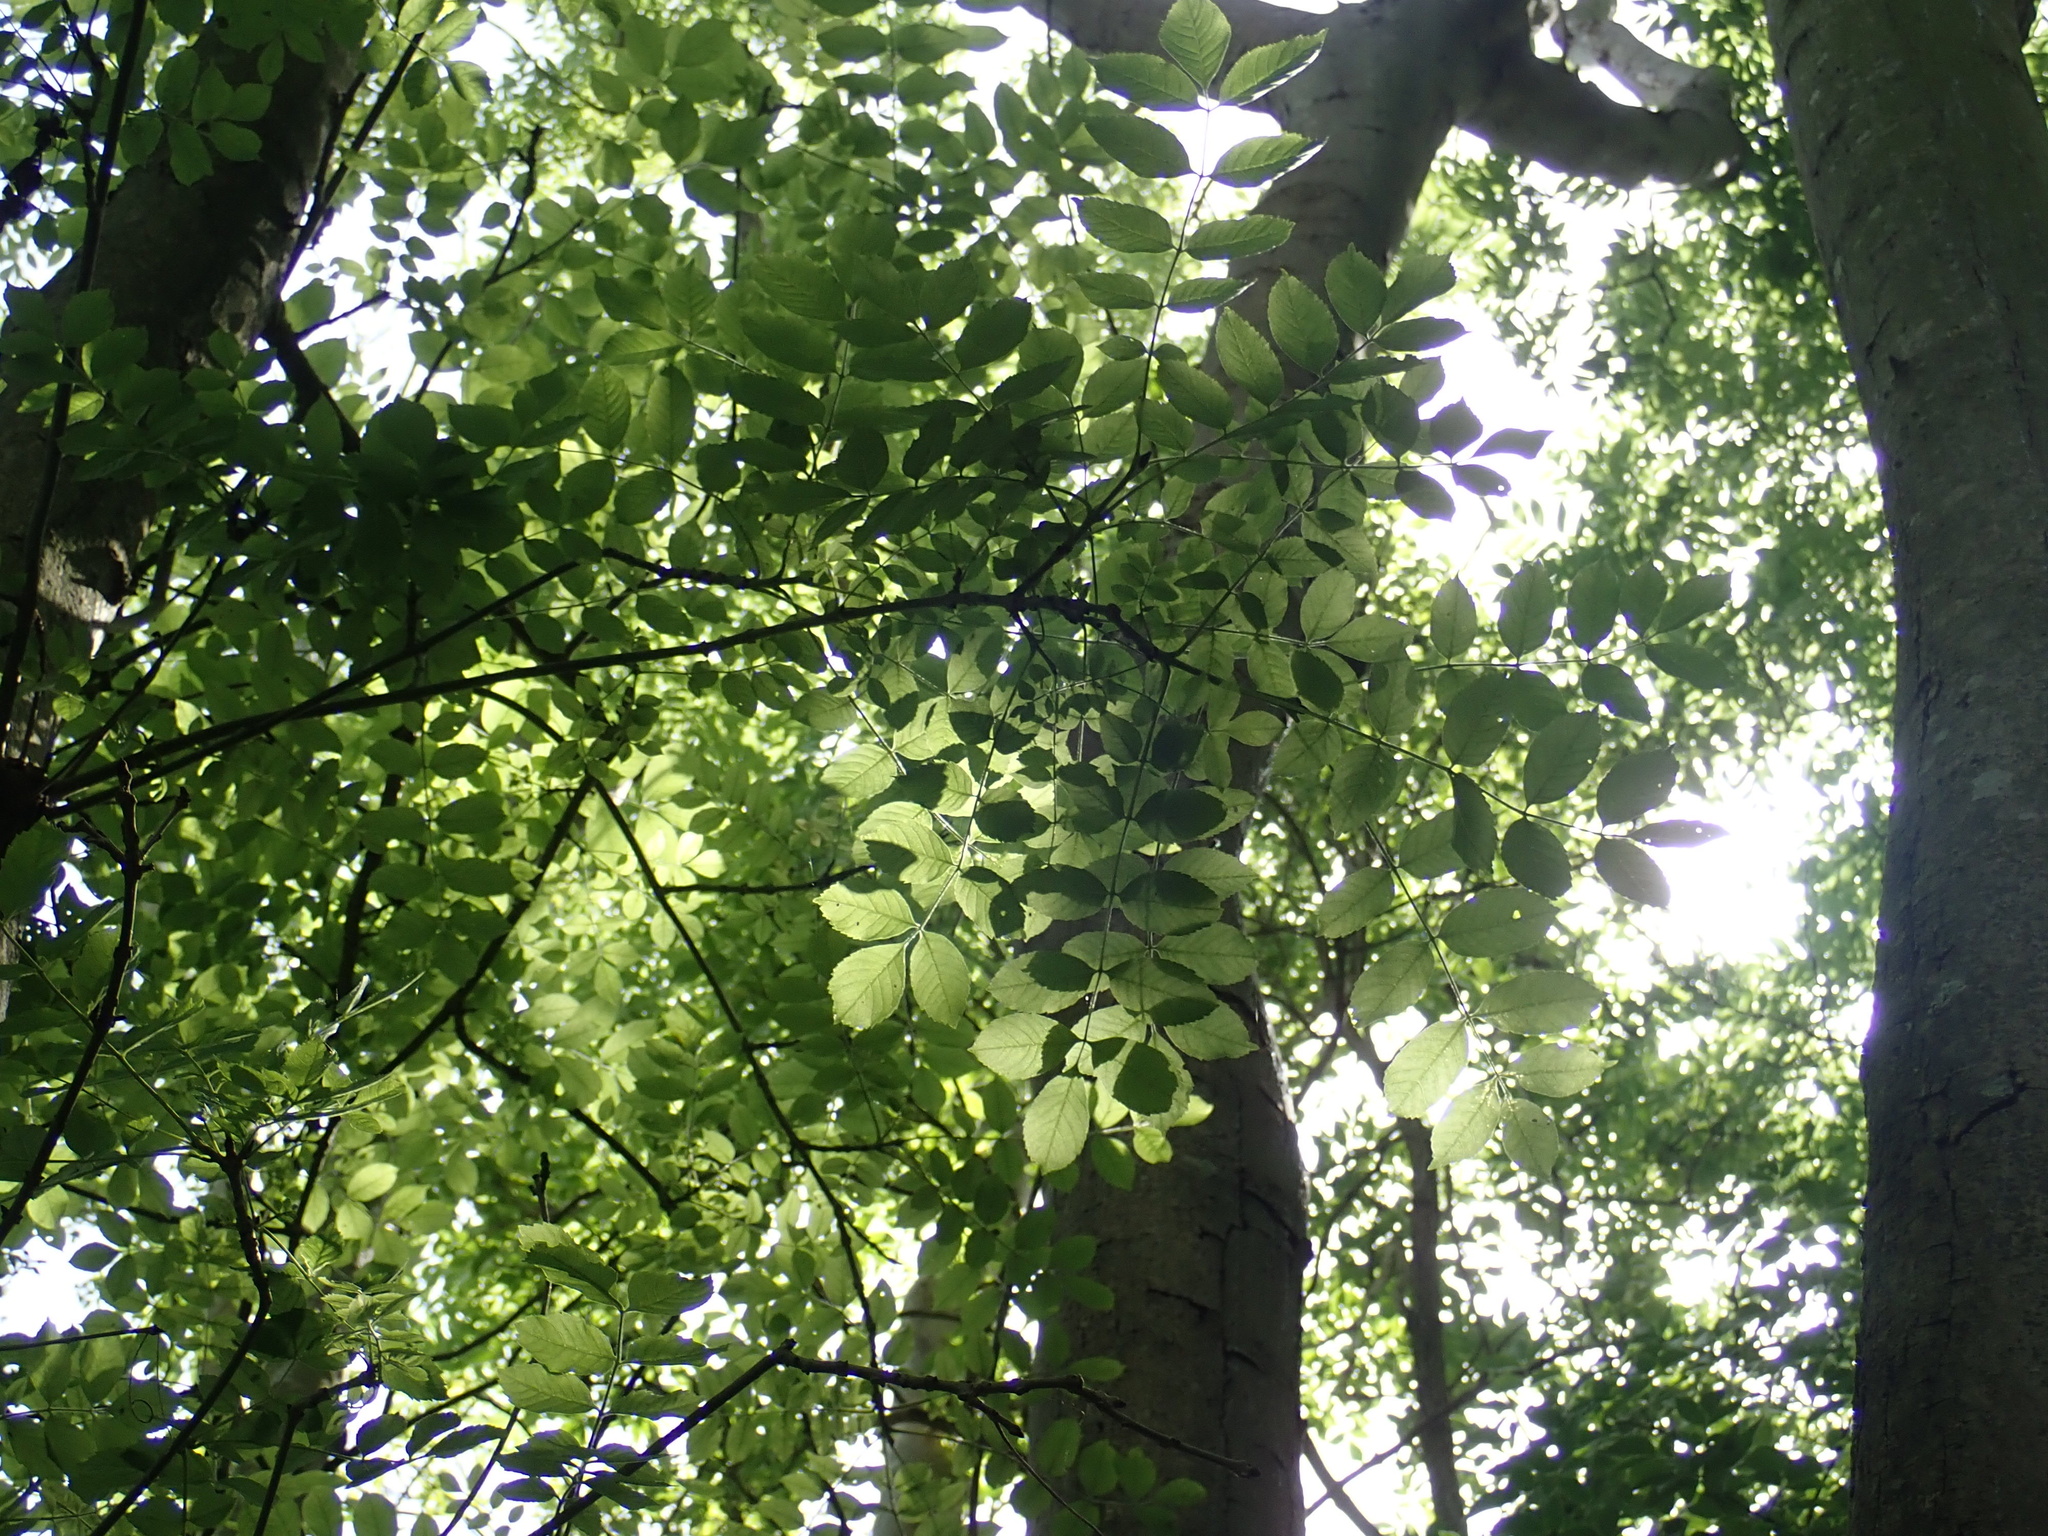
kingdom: Plantae
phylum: Tracheophyta
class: Magnoliopsida
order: Lamiales
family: Oleaceae
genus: Fraxinus
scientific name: Fraxinus excelsior
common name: European ash
